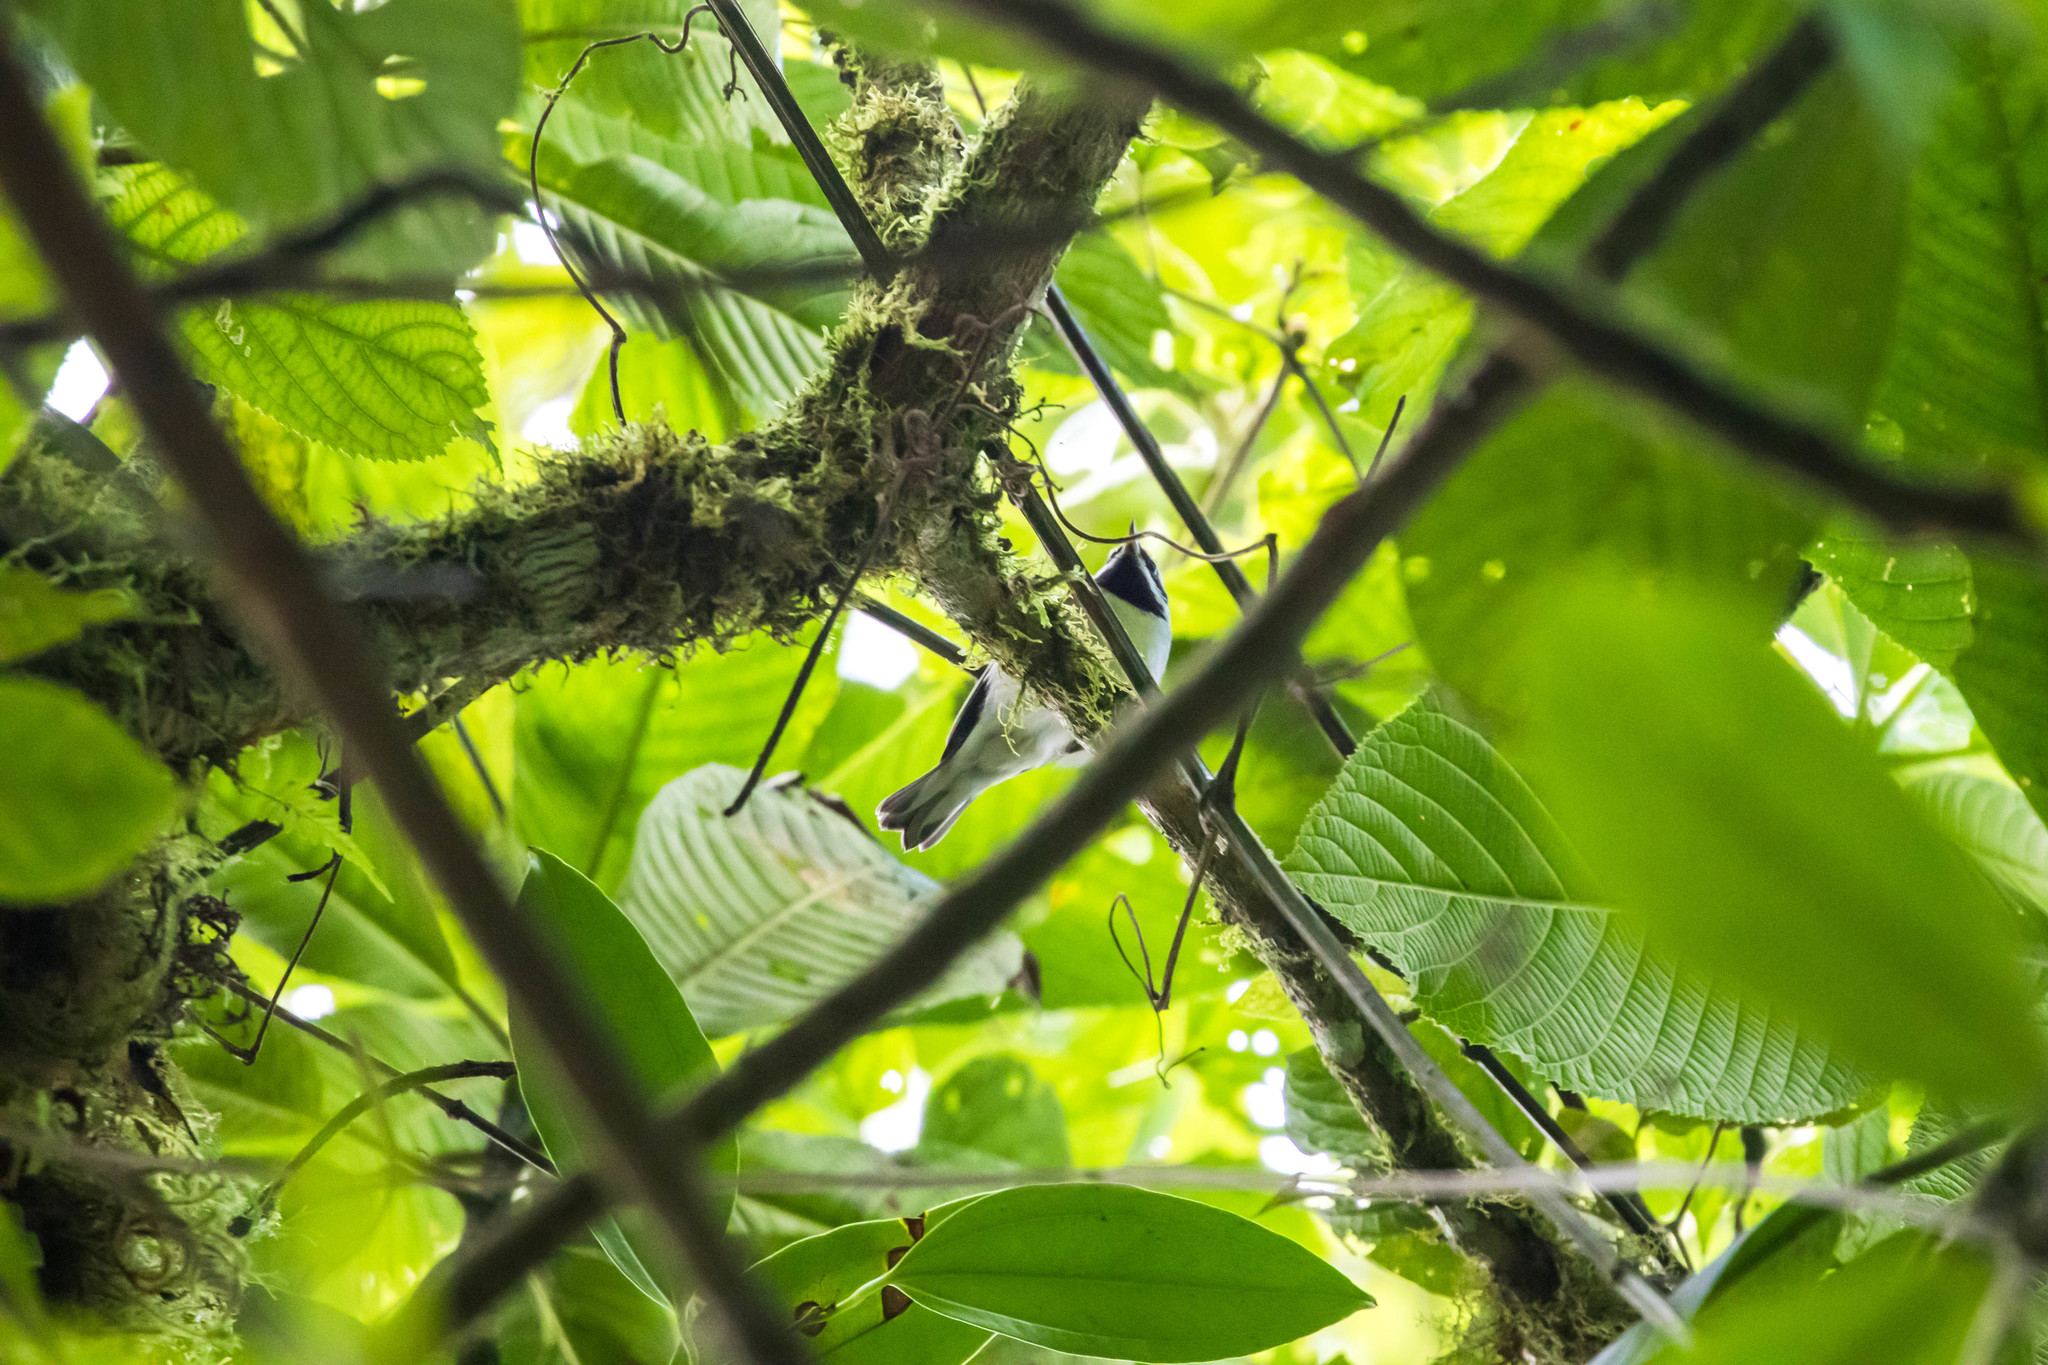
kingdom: Animalia
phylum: Chordata
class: Aves
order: Passeriformes
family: Parulidae
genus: Vermivora
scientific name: Vermivora chrysoptera
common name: Golden-winged warbler
